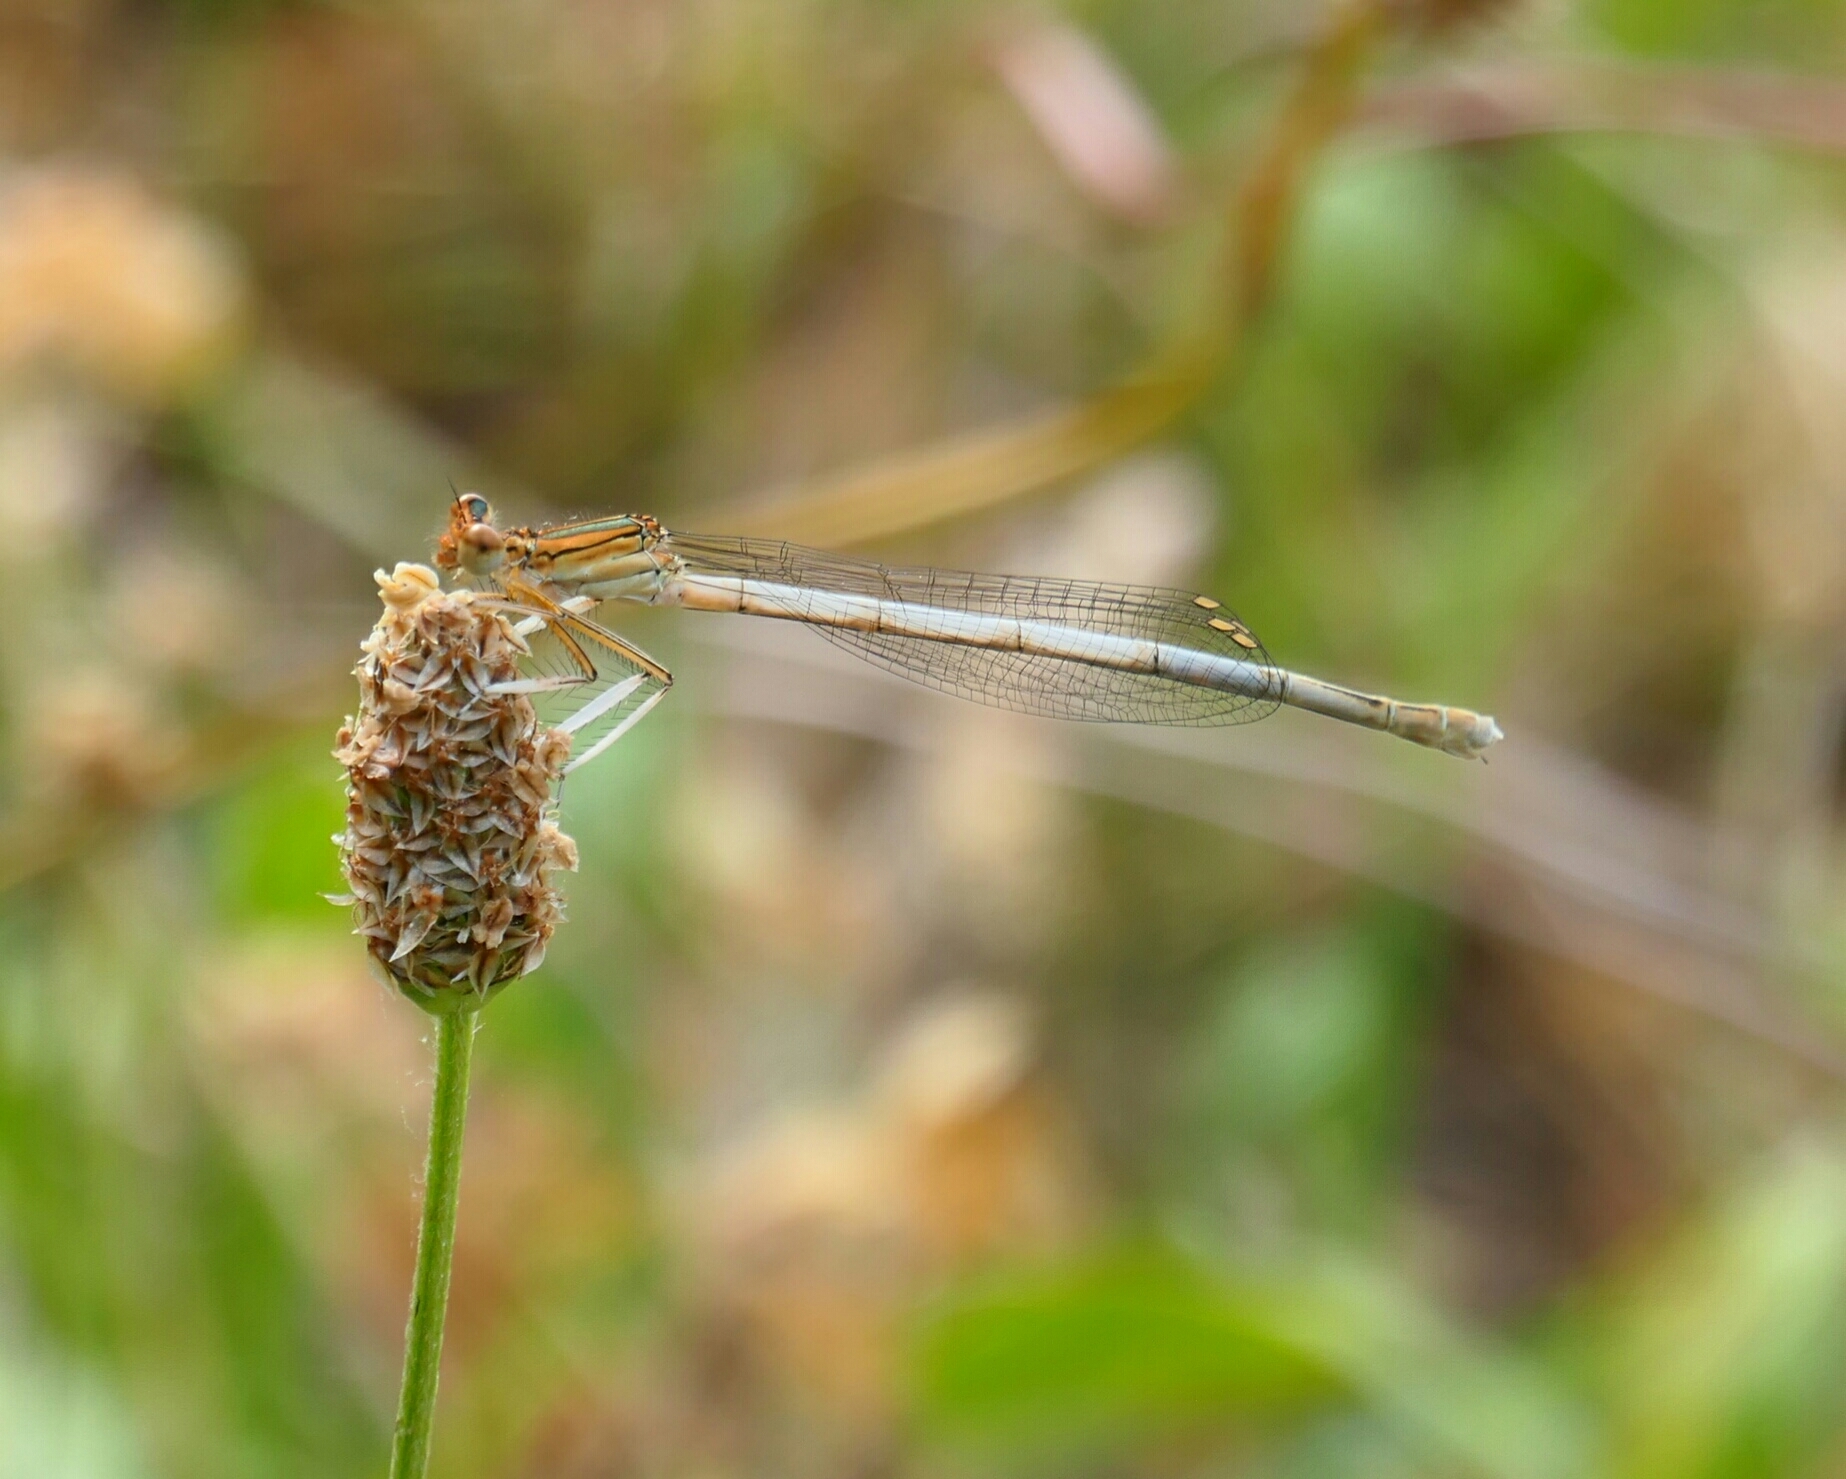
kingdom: Animalia
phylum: Arthropoda
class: Insecta
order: Odonata
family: Platycnemididae
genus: Platycnemis
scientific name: Platycnemis latipes
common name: White featherleg
